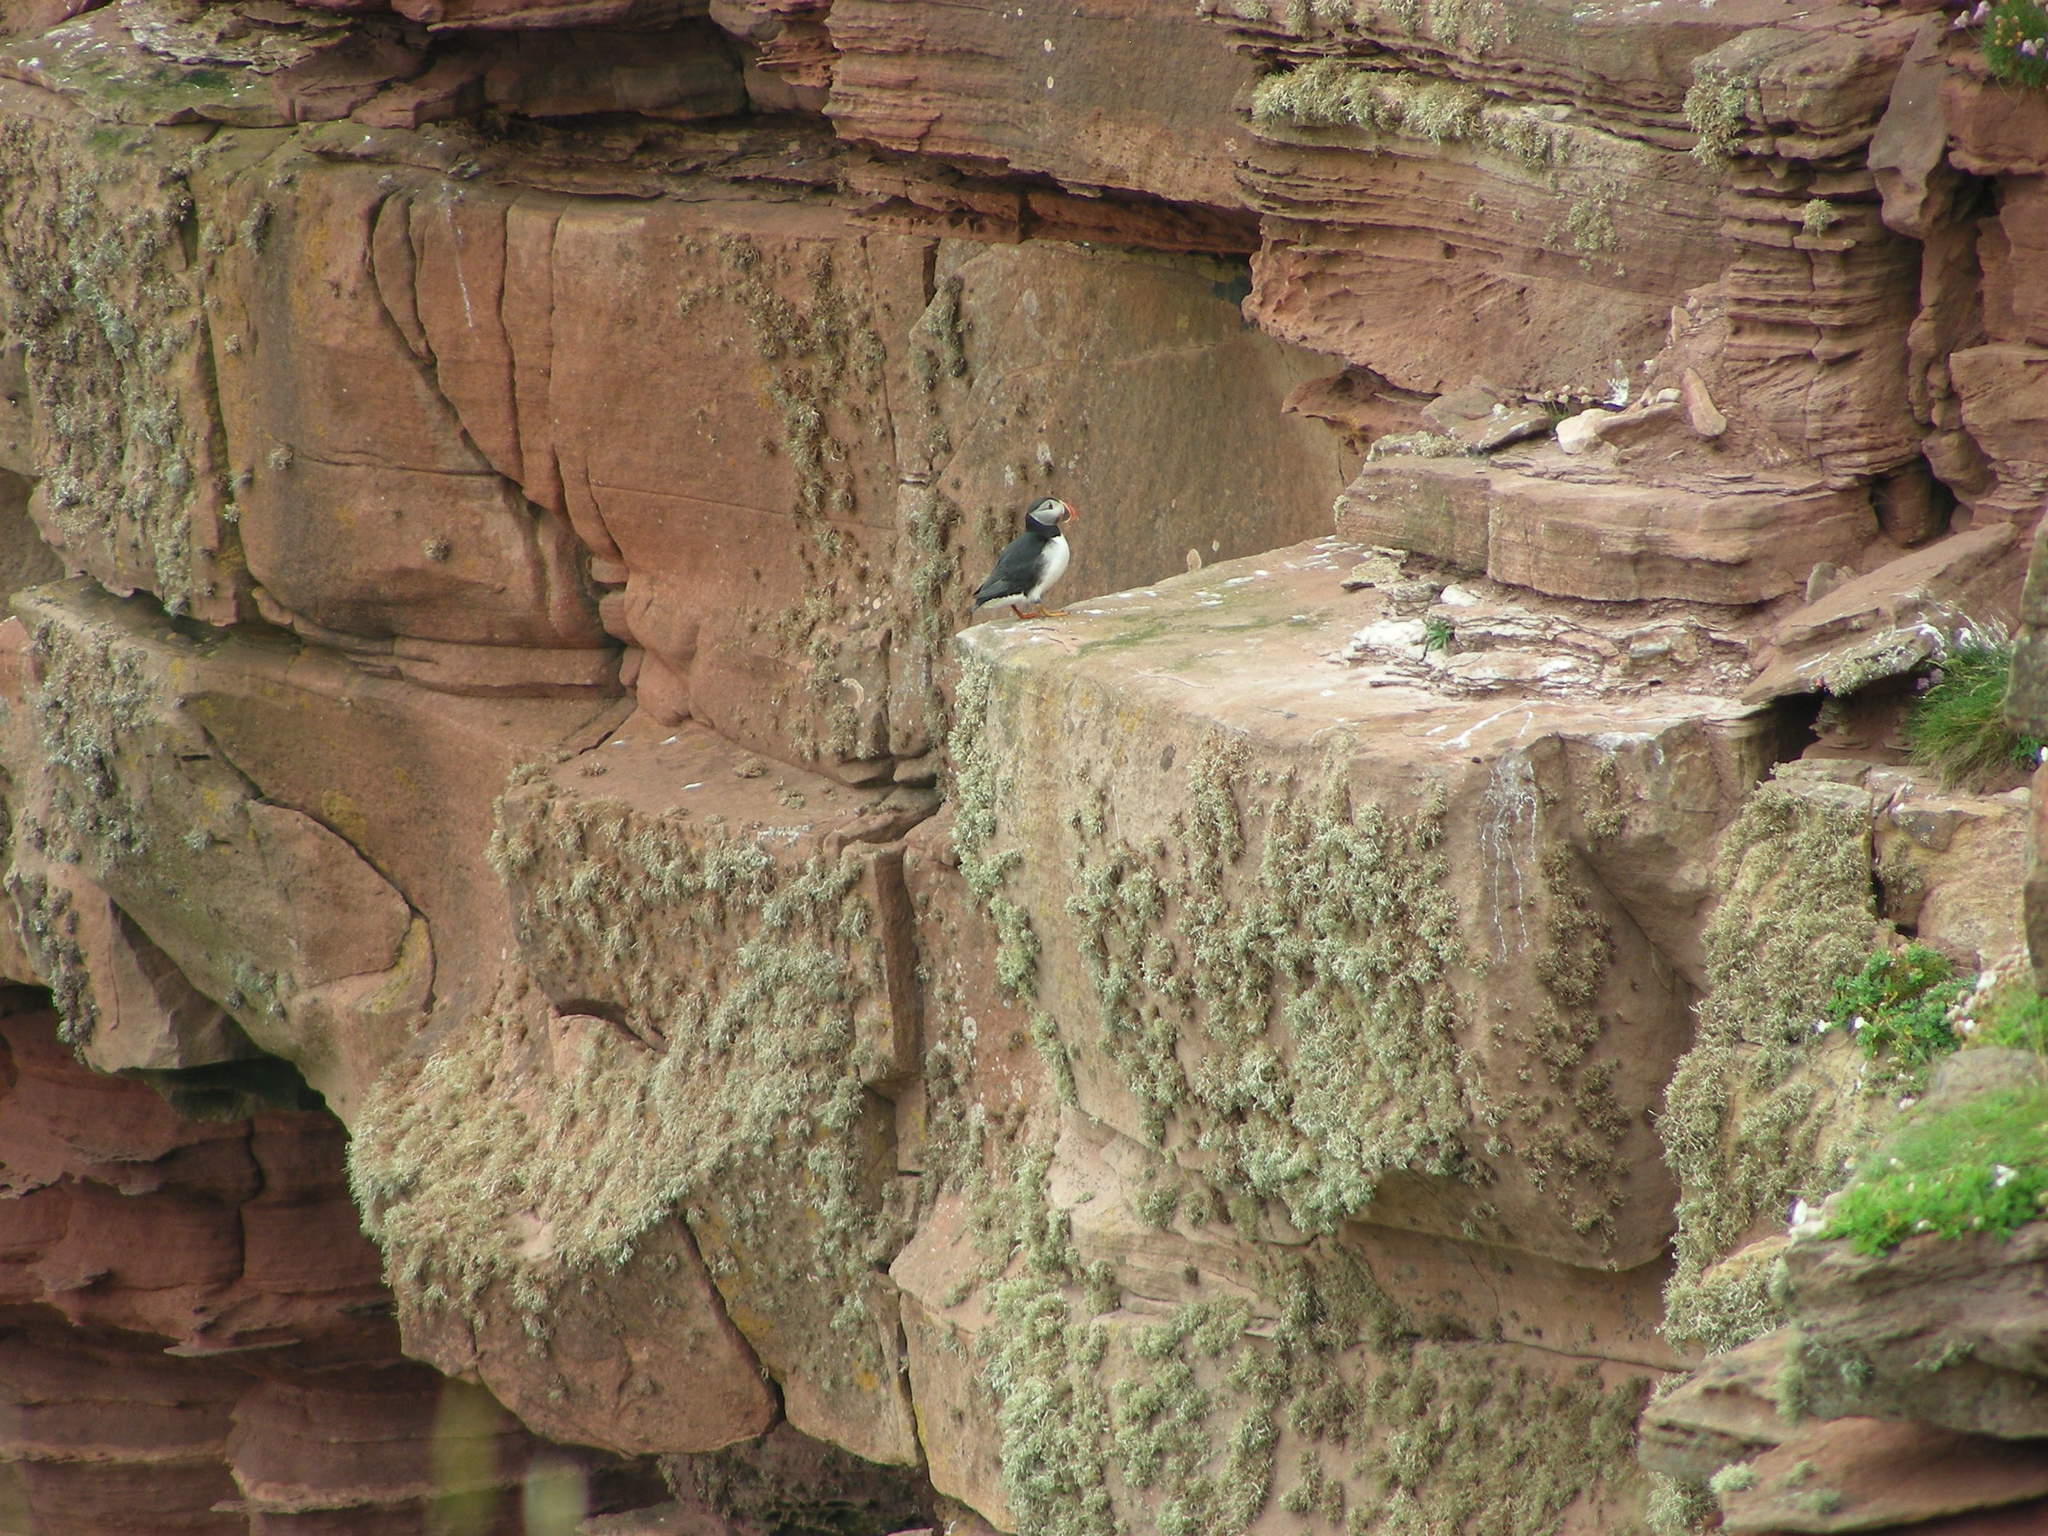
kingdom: Animalia
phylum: Chordata
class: Aves
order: Charadriiformes
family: Alcidae
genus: Fratercula
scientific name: Fratercula arctica
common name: Atlantic puffin
